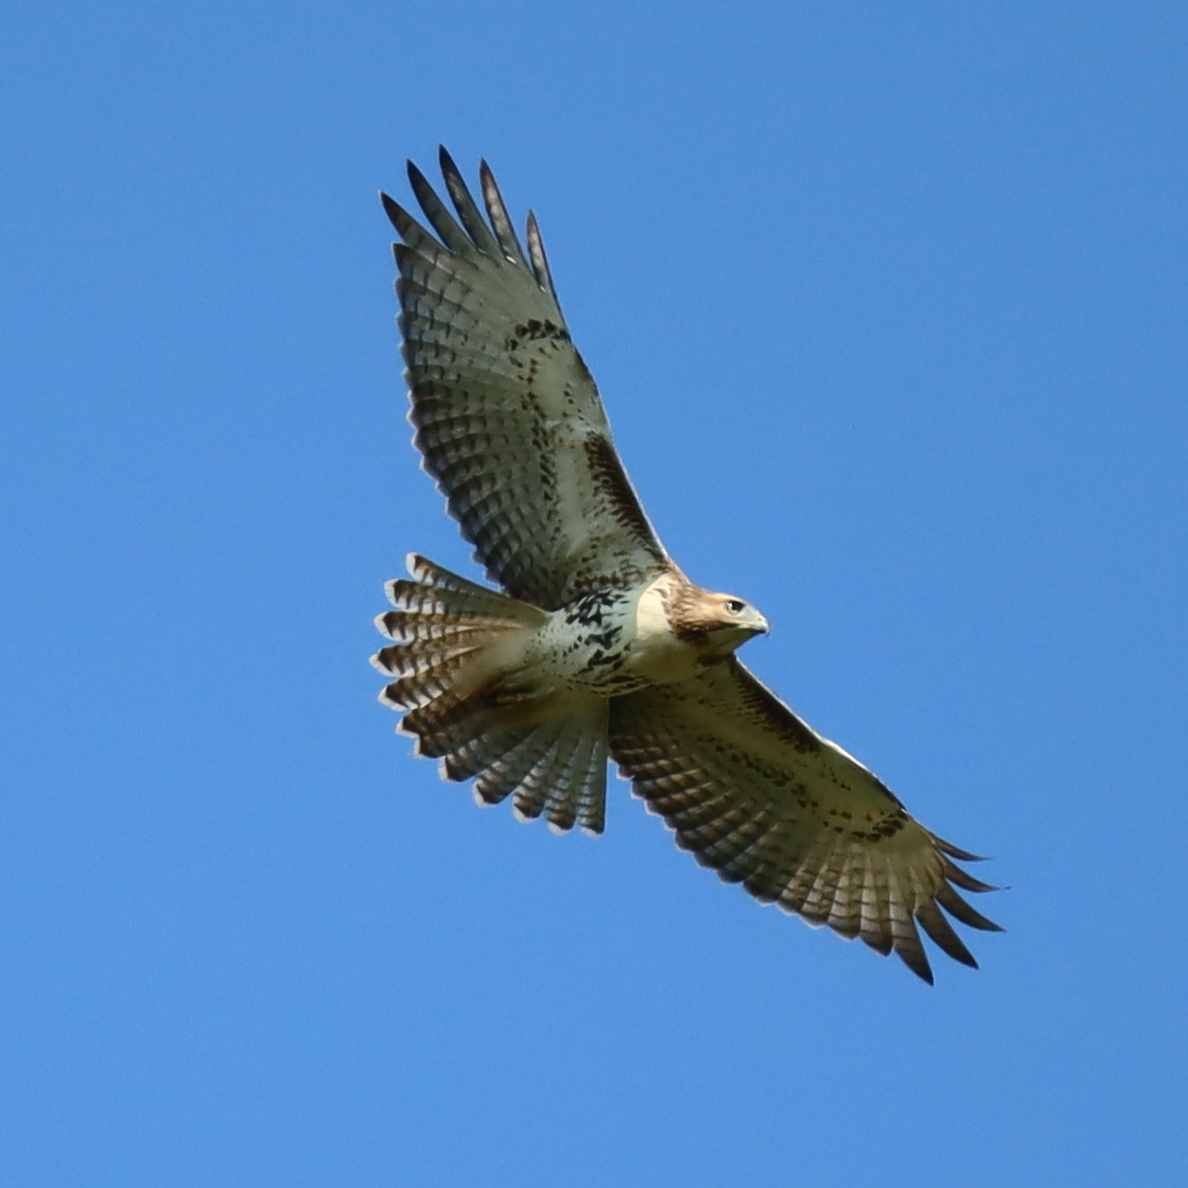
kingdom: Animalia
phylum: Chordata
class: Aves
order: Accipitriformes
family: Accipitridae
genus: Buteo
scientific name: Buteo jamaicensis
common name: Red-tailed hawk
